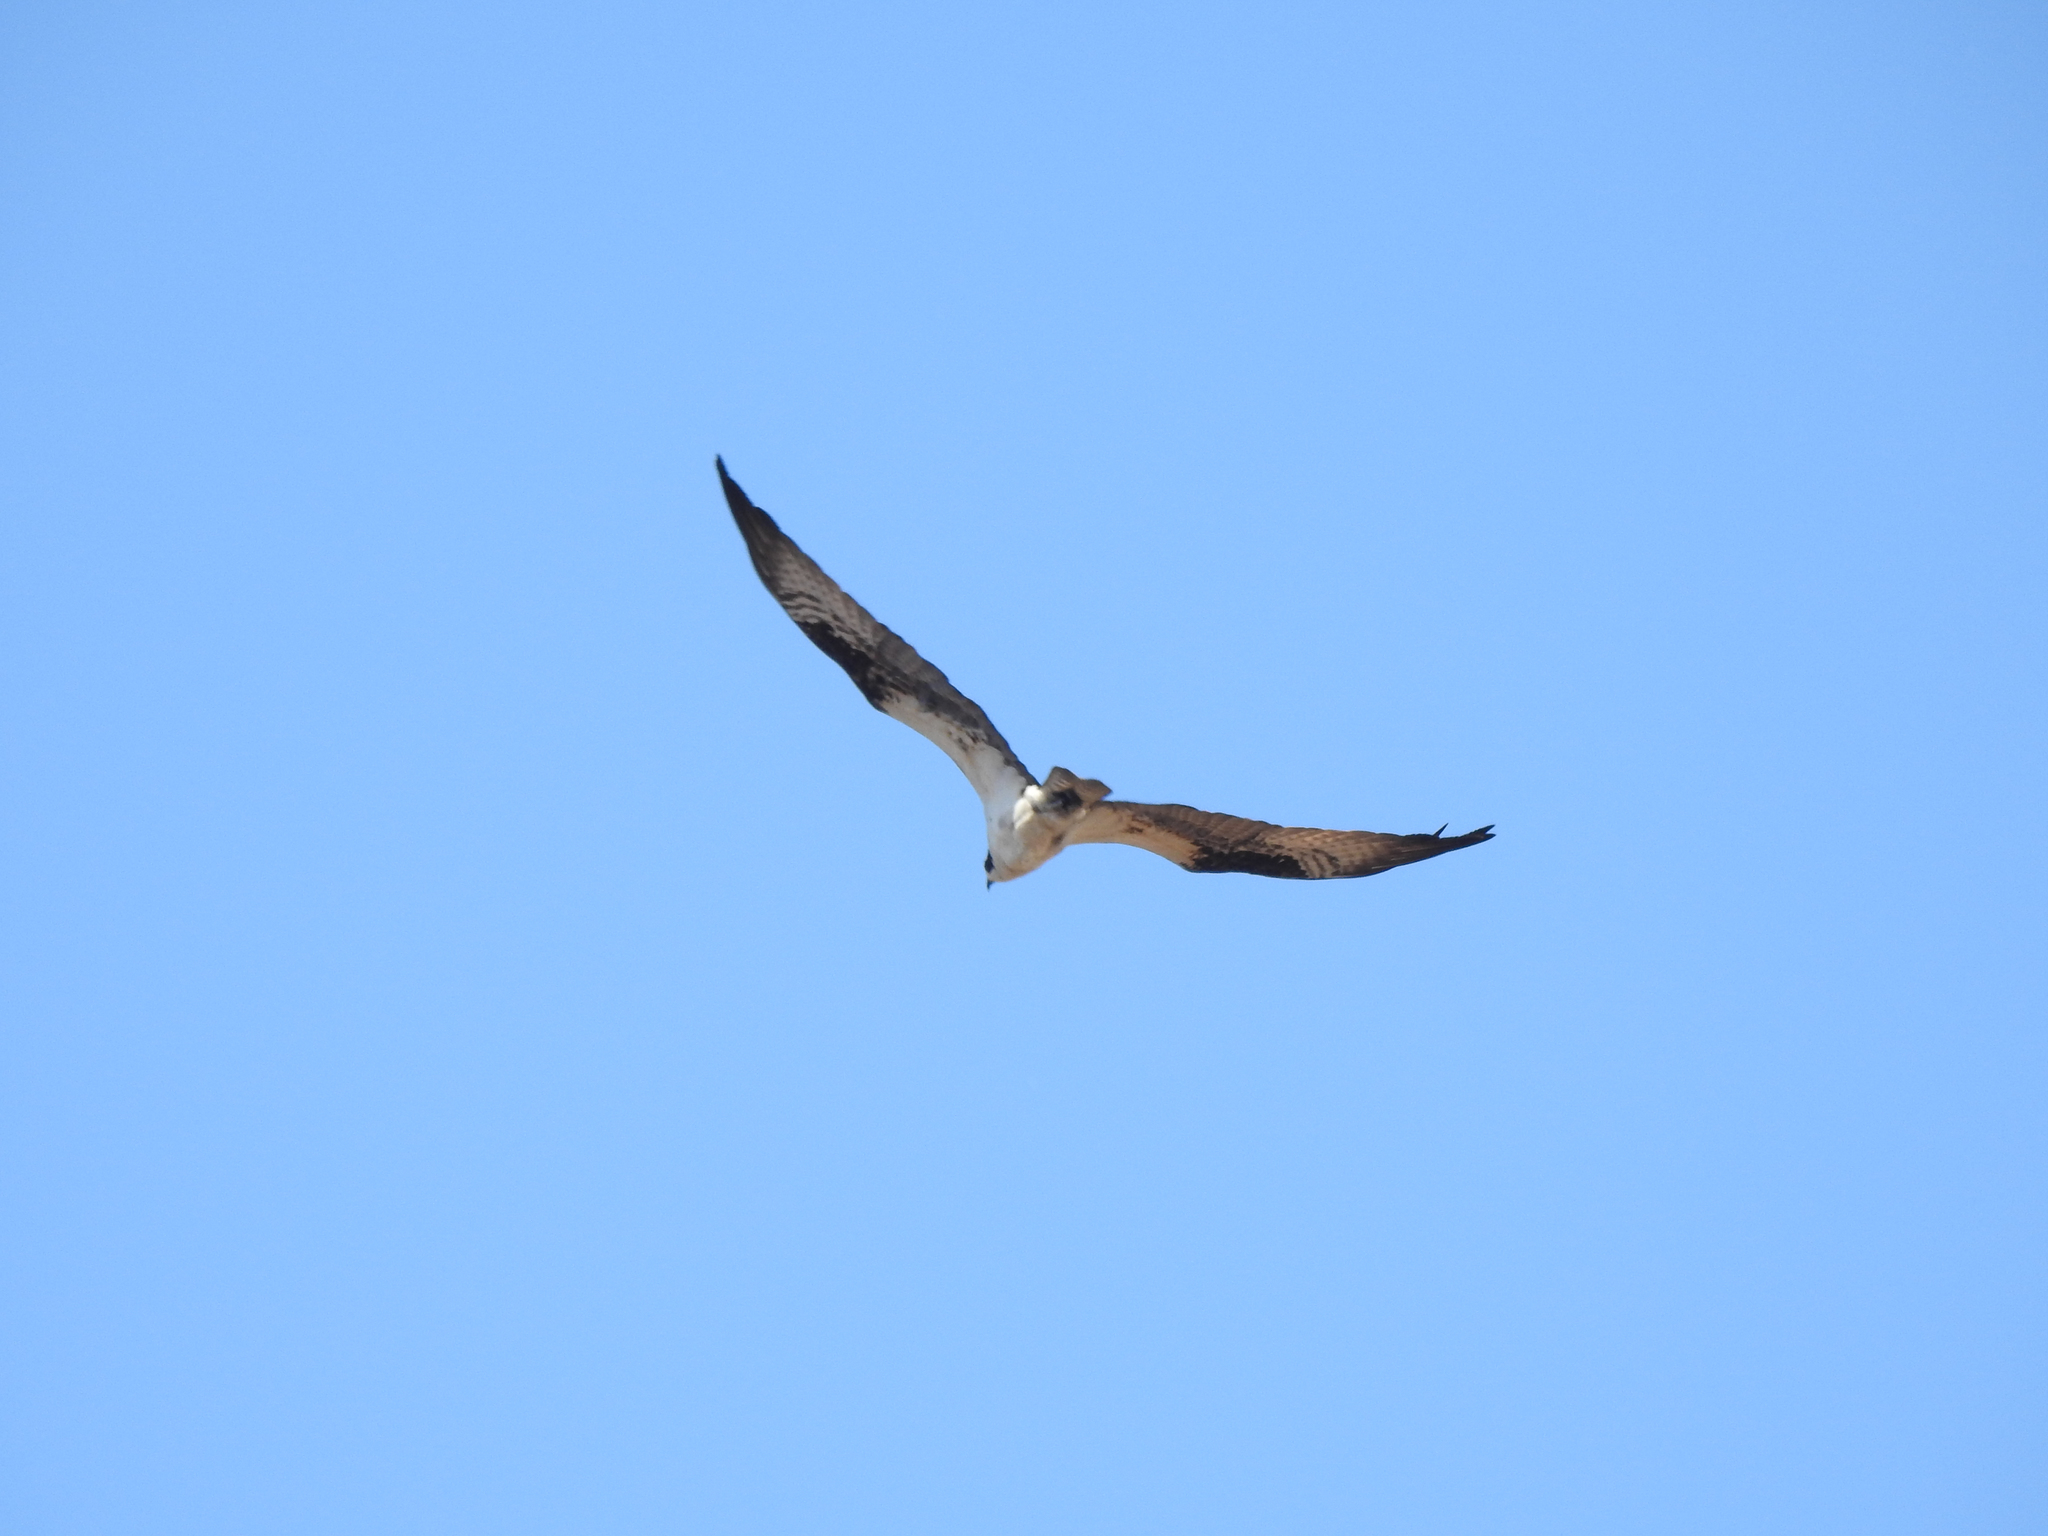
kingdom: Animalia
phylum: Chordata
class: Aves
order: Accipitriformes
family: Pandionidae
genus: Pandion
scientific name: Pandion haliaetus
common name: Osprey
